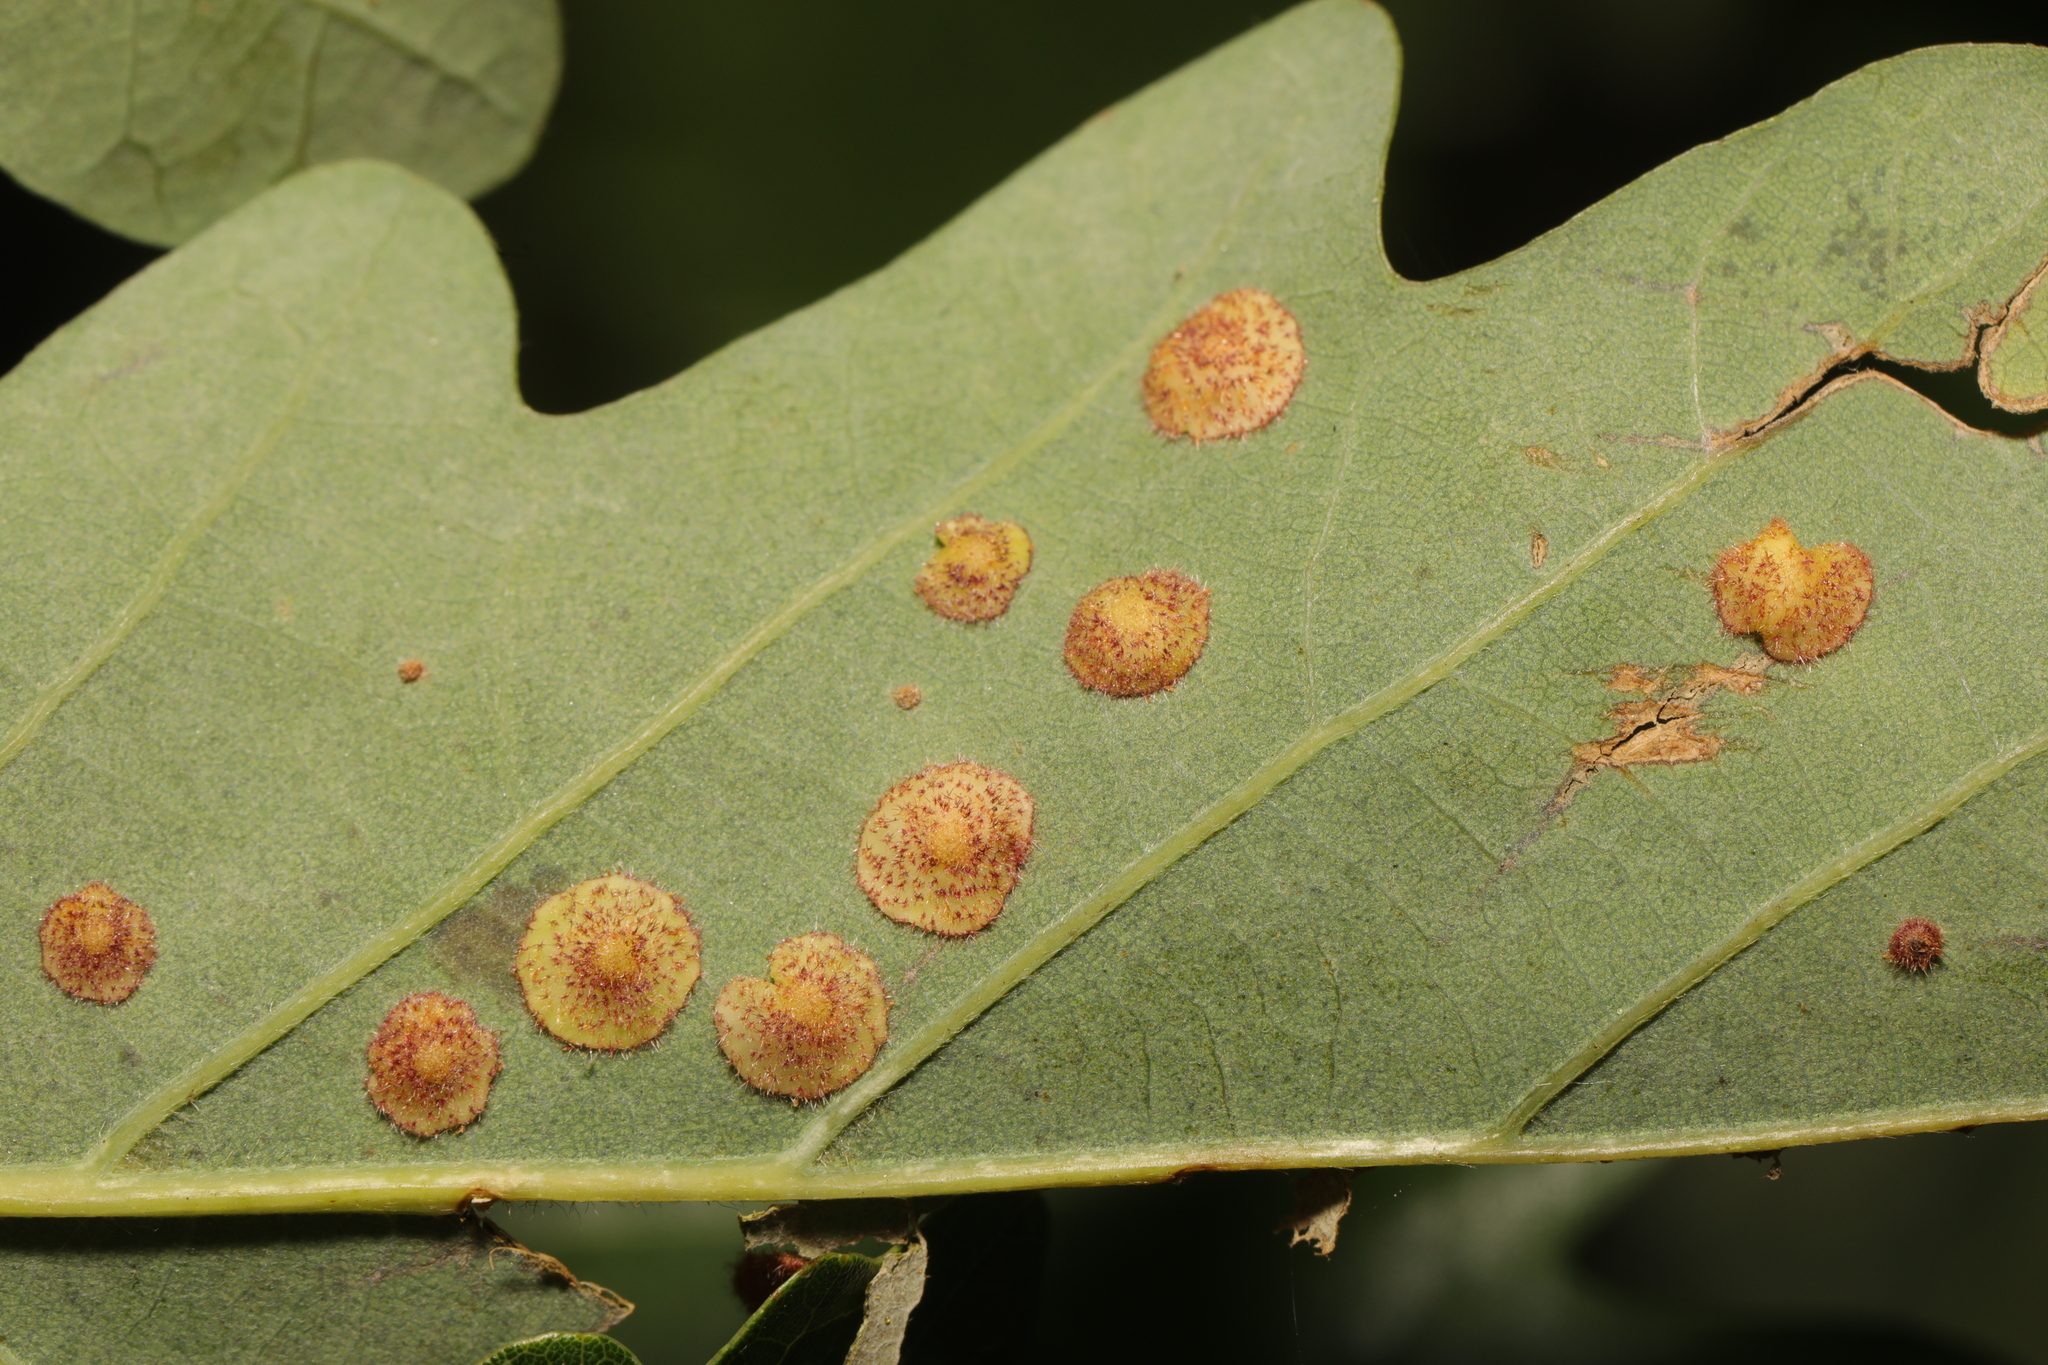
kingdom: Animalia
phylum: Arthropoda
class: Insecta
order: Hymenoptera
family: Cynipidae
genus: Neuroterus
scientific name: Neuroterus quercusbaccarum
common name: Common spangle gall
